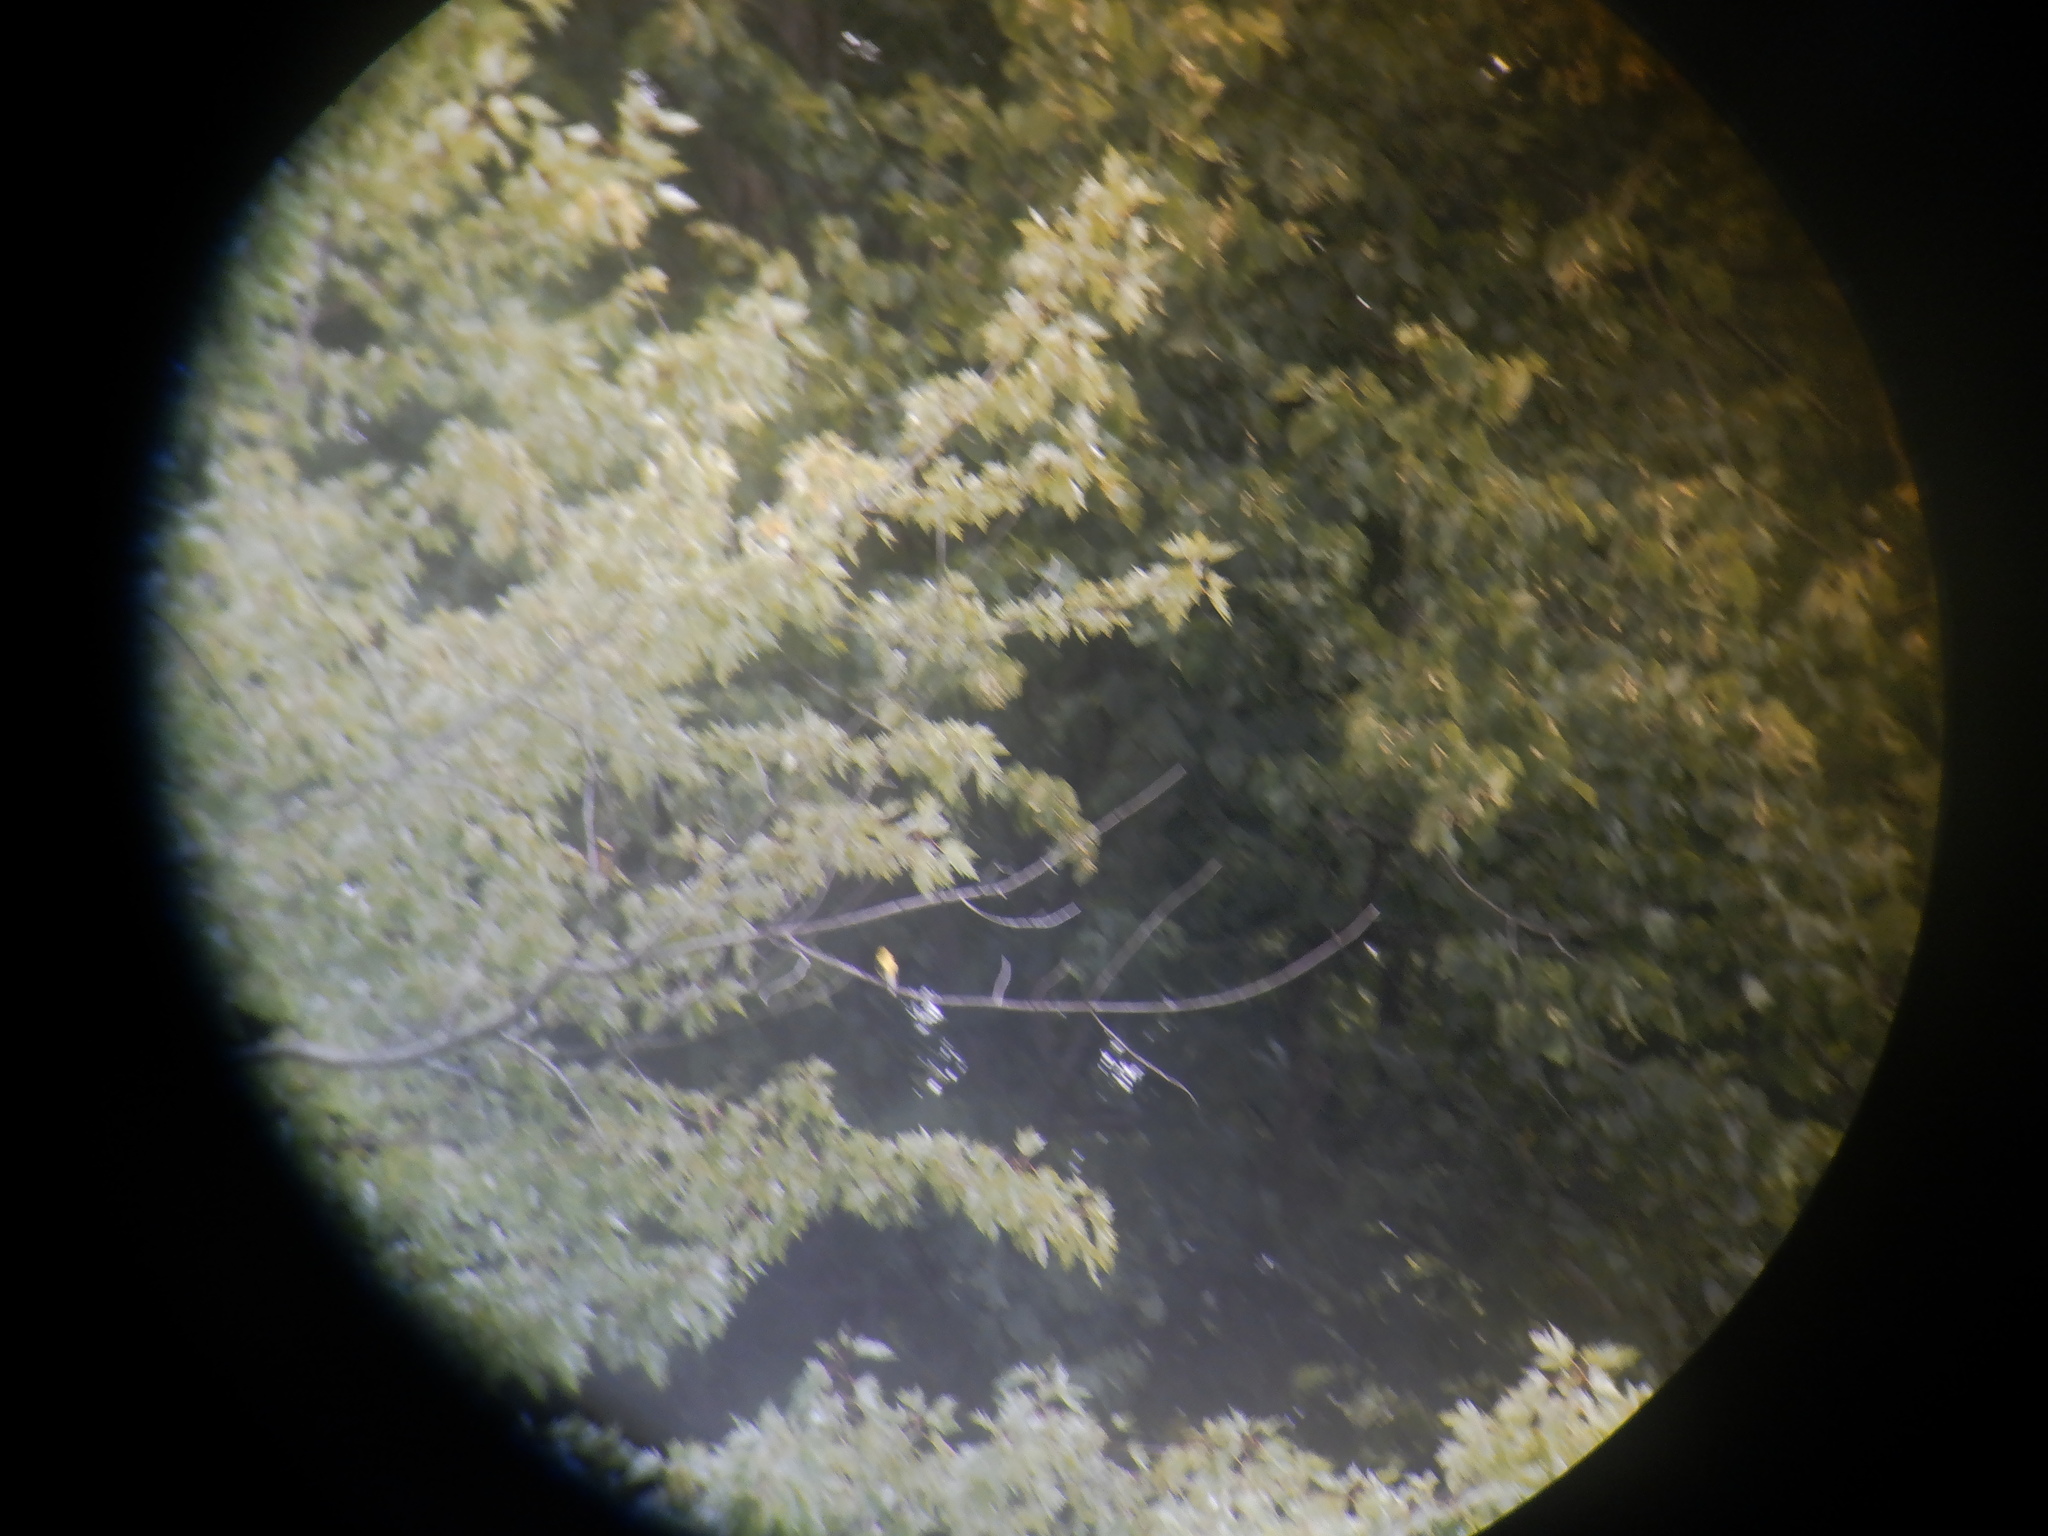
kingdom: Animalia
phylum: Chordata
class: Aves
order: Passeriformes
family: Fringillidae
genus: Spinus
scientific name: Spinus tristis
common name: American goldfinch
